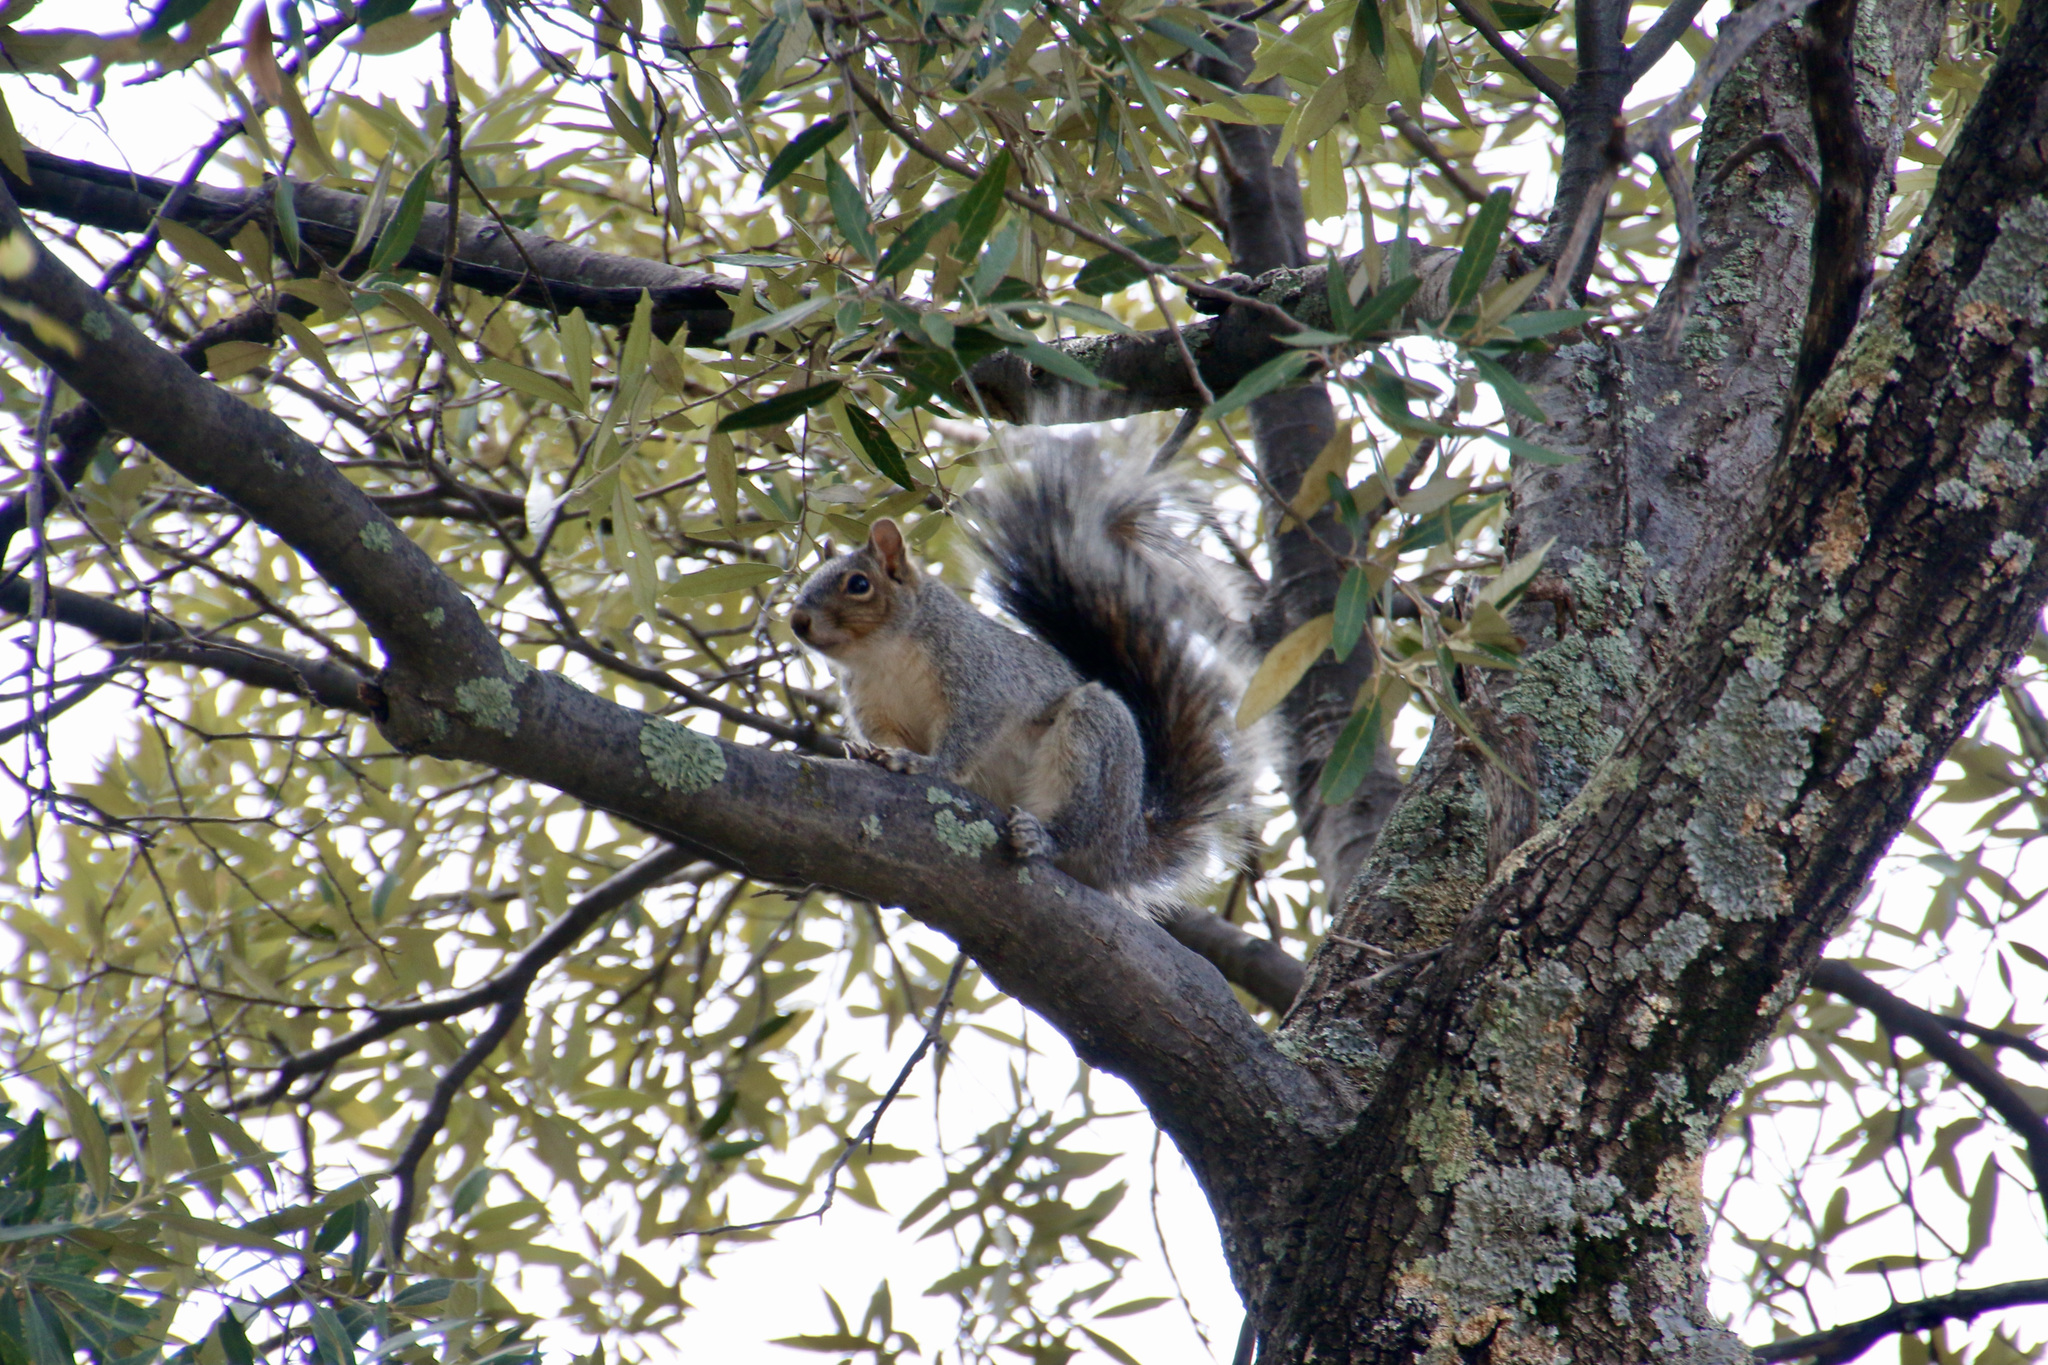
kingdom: Animalia
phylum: Chordata
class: Mammalia
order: Rodentia
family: Sciuridae
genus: Sciurus
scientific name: Sciurus arizonensis
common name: Arizona gray squirrel
